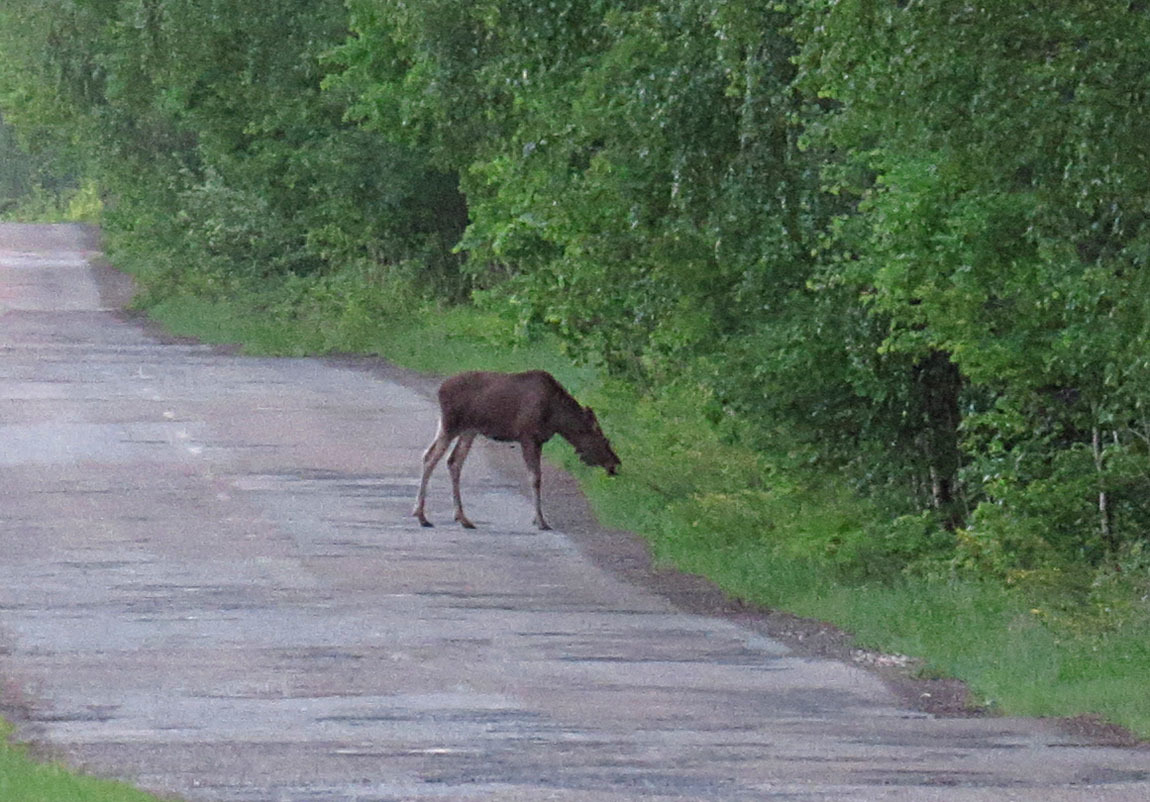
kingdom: Animalia
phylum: Chordata
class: Mammalia
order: Artiodactyla
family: Cervidae
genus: Alces
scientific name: Alces alces
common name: Moose
